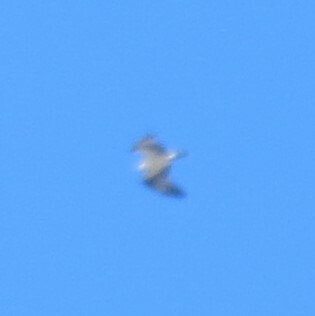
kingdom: Animalia
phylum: Chordata
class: Aves
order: Accipitriformes
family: Pandionidae
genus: Pandion
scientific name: Pandion haliaetus
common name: Osprey
